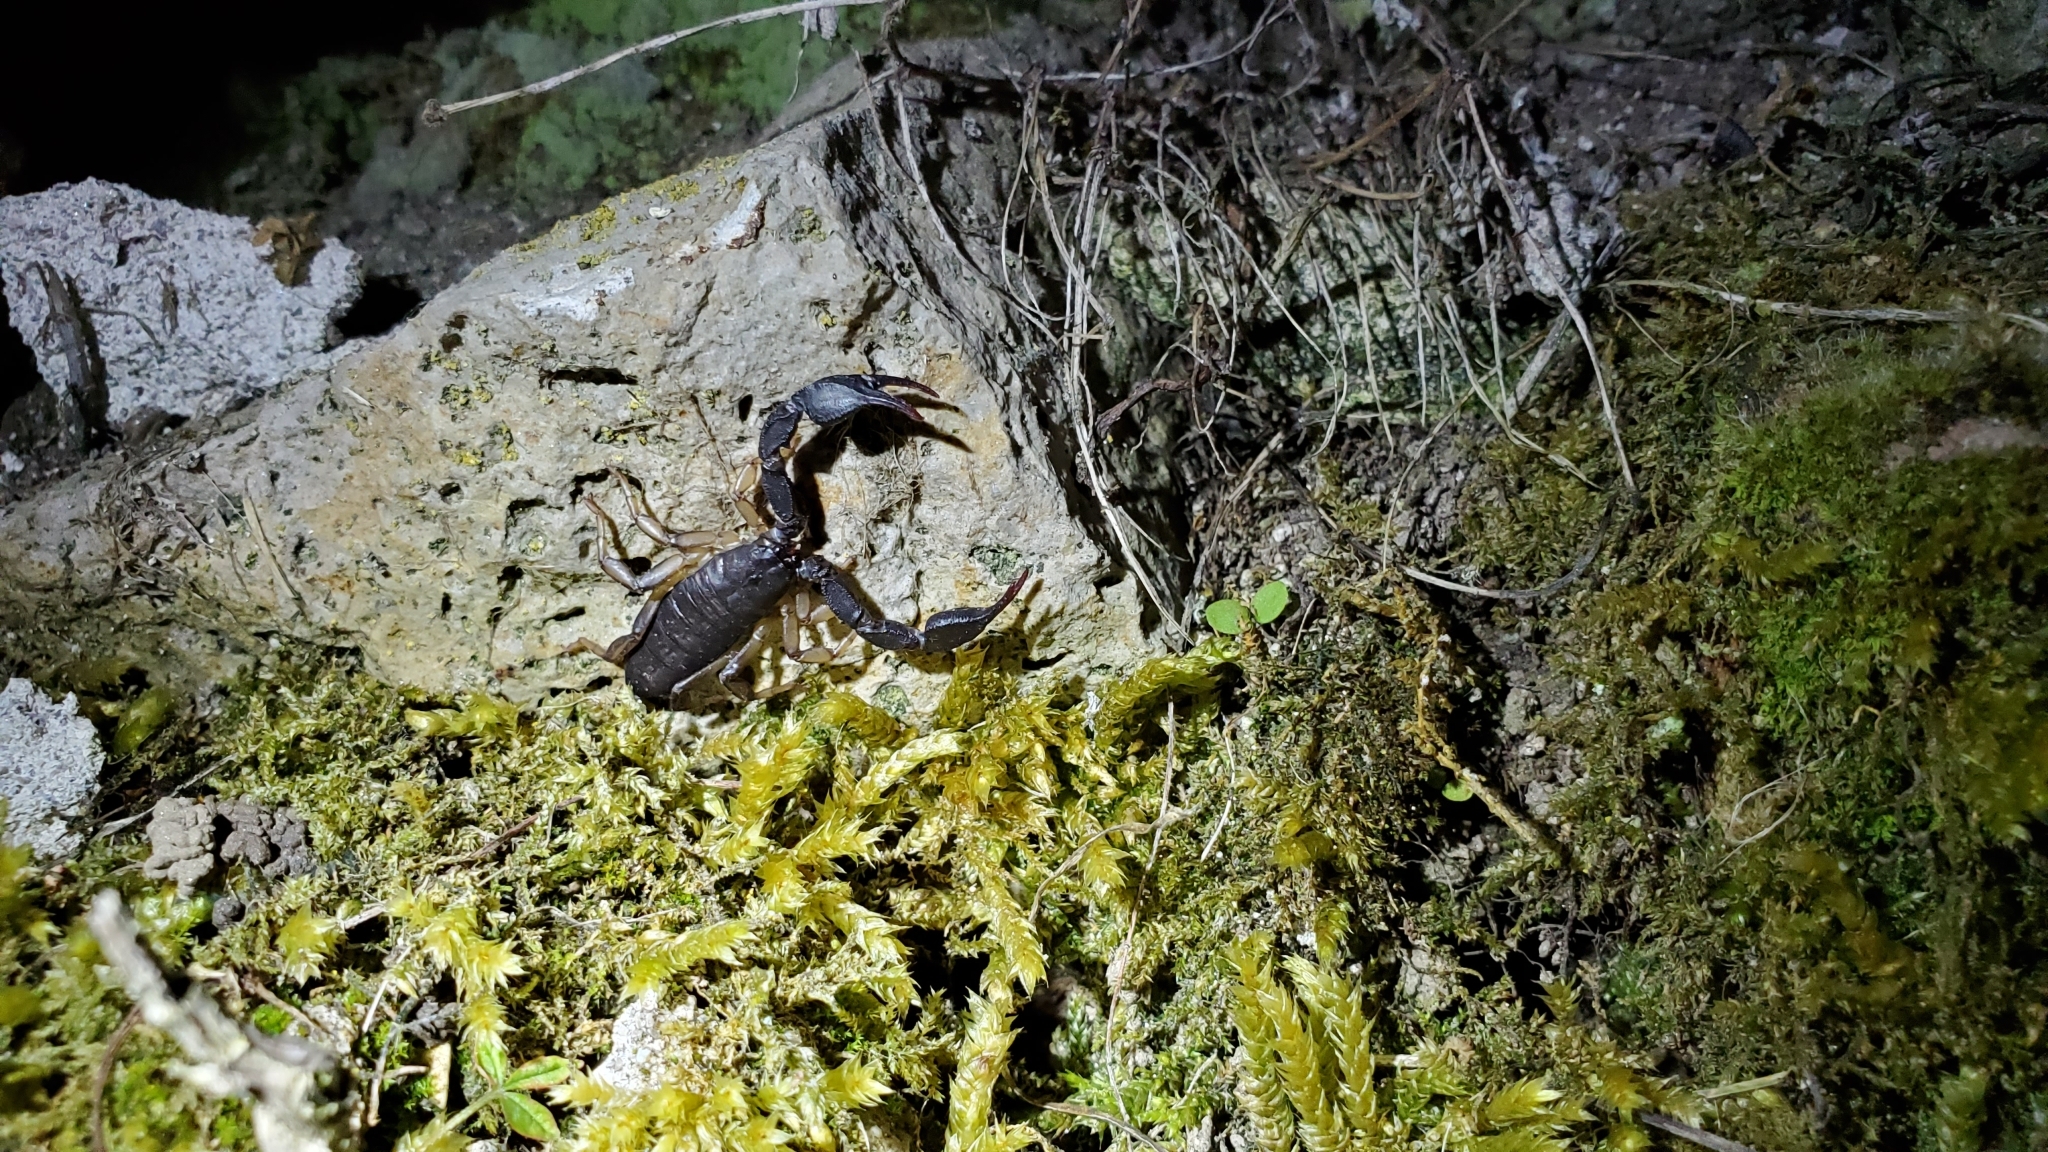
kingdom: Animalia
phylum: Arthropoda
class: Arachnida
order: Scorpiones
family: Euscorpiidae
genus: Euscorpius
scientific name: Euscorpius italicus
